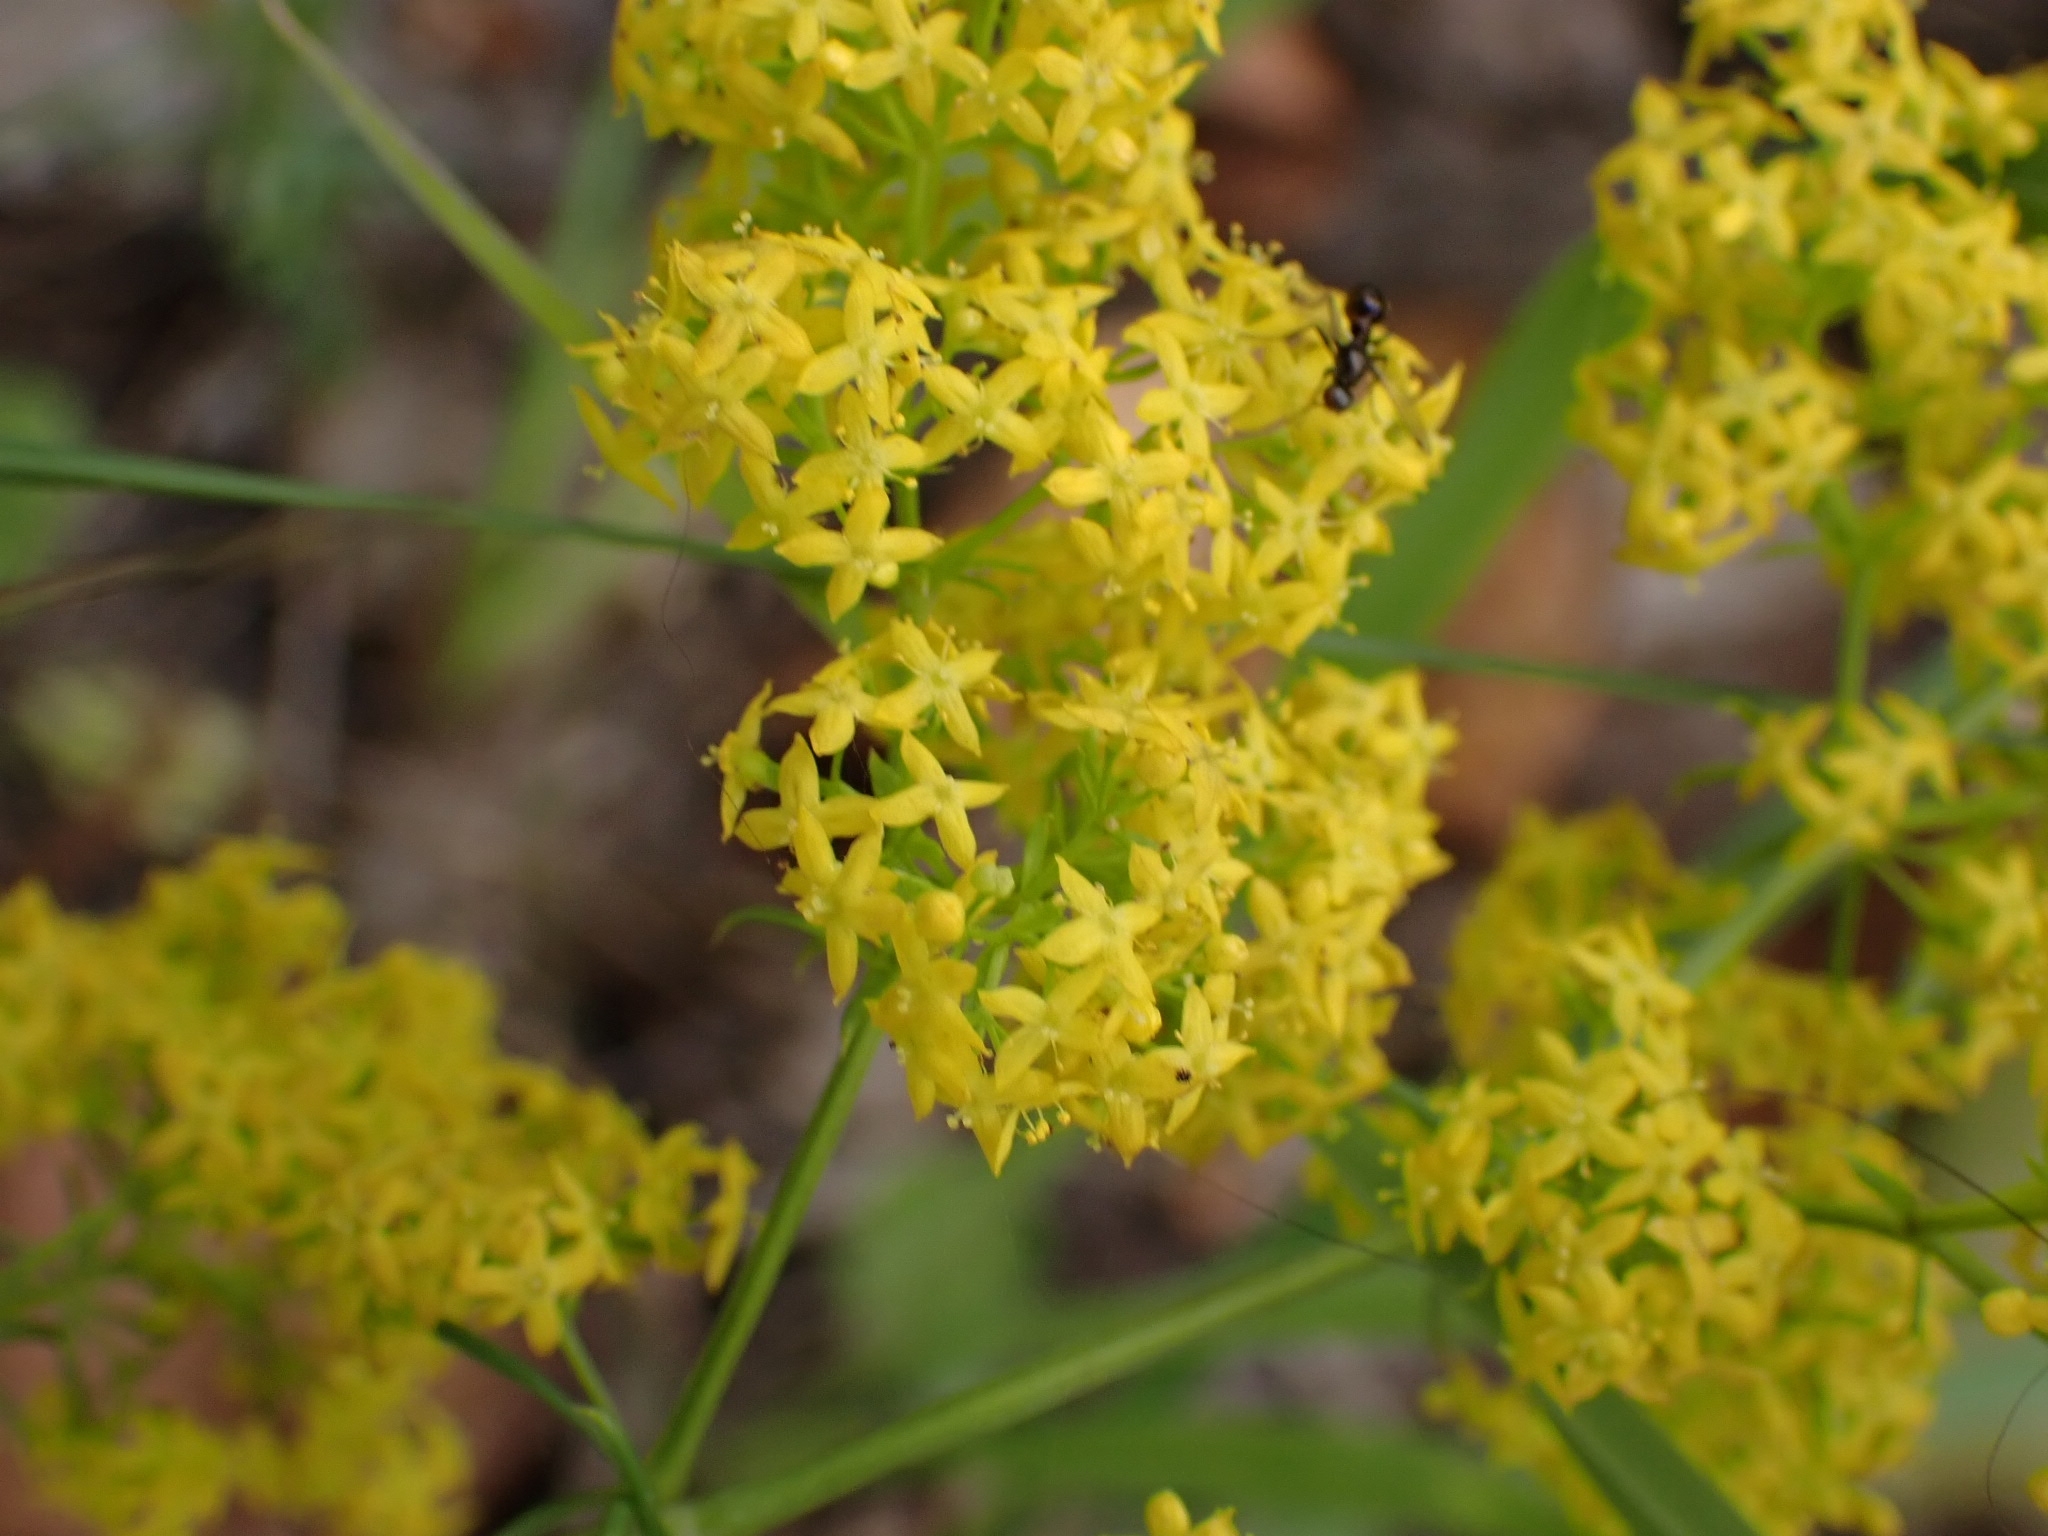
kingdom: Plantae
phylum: Tracheophyta
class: Magnoliopsida
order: Gentianales
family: Rubiaceae
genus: Galium
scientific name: Galium verum
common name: Lady's bedstraw
